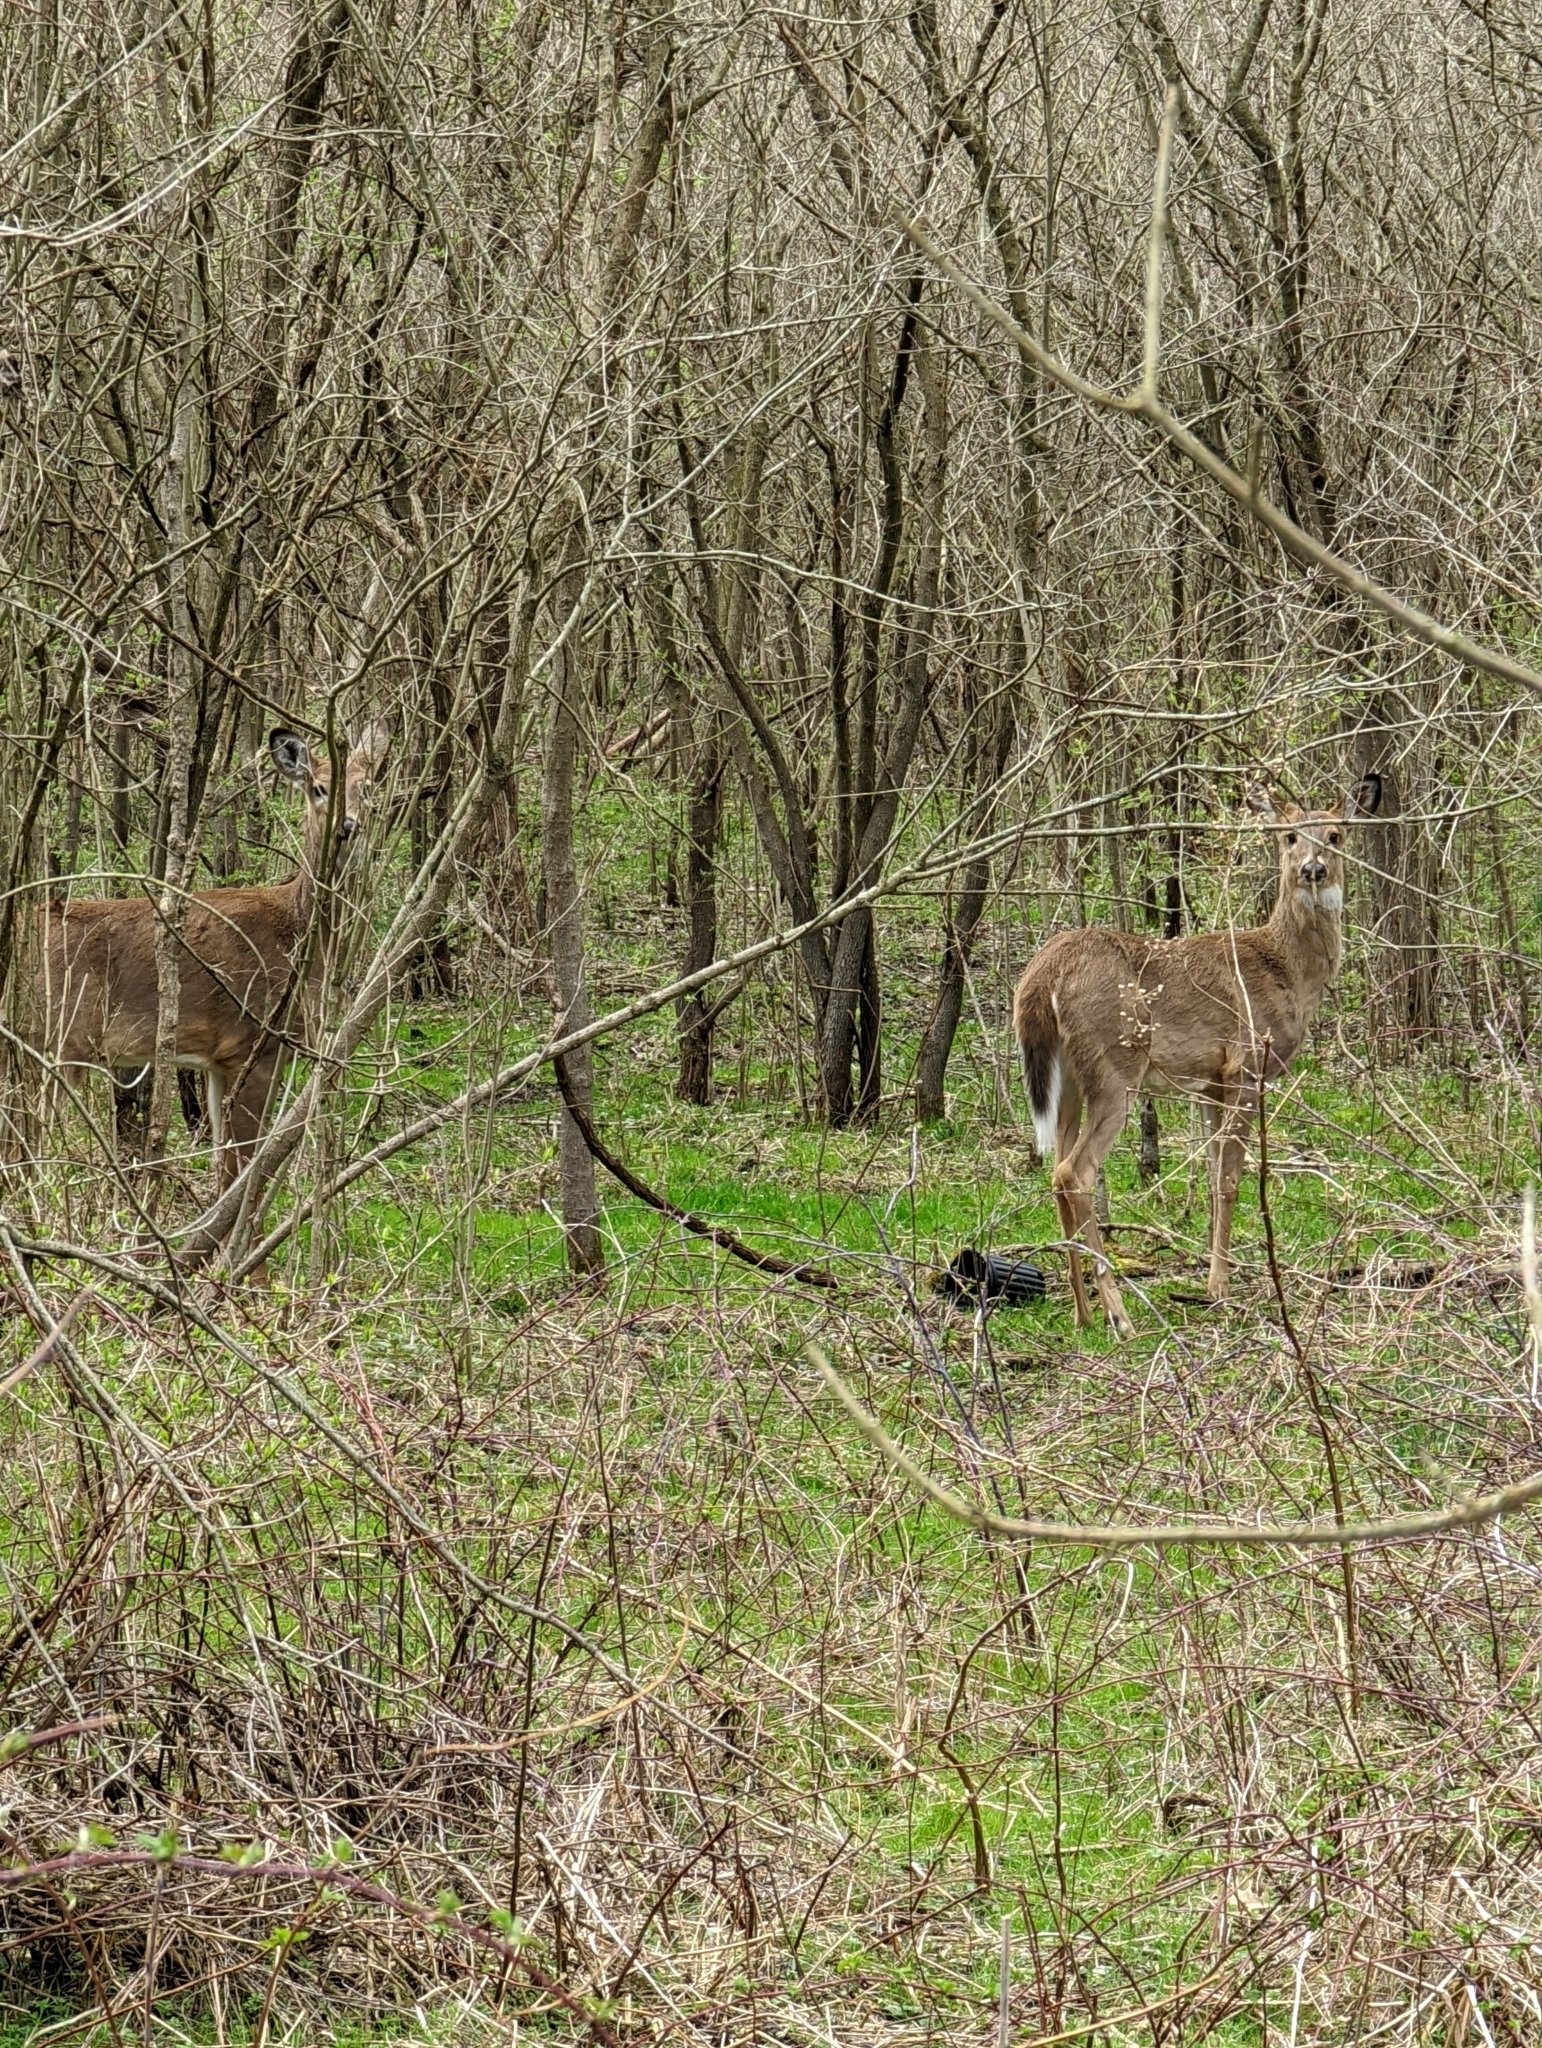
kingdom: Animalia
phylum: Chordata
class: Mammalia
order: Artiodactyla
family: Cervidae
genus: Odocoileus
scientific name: Odocoileus virginianus
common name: White-tailed deer
